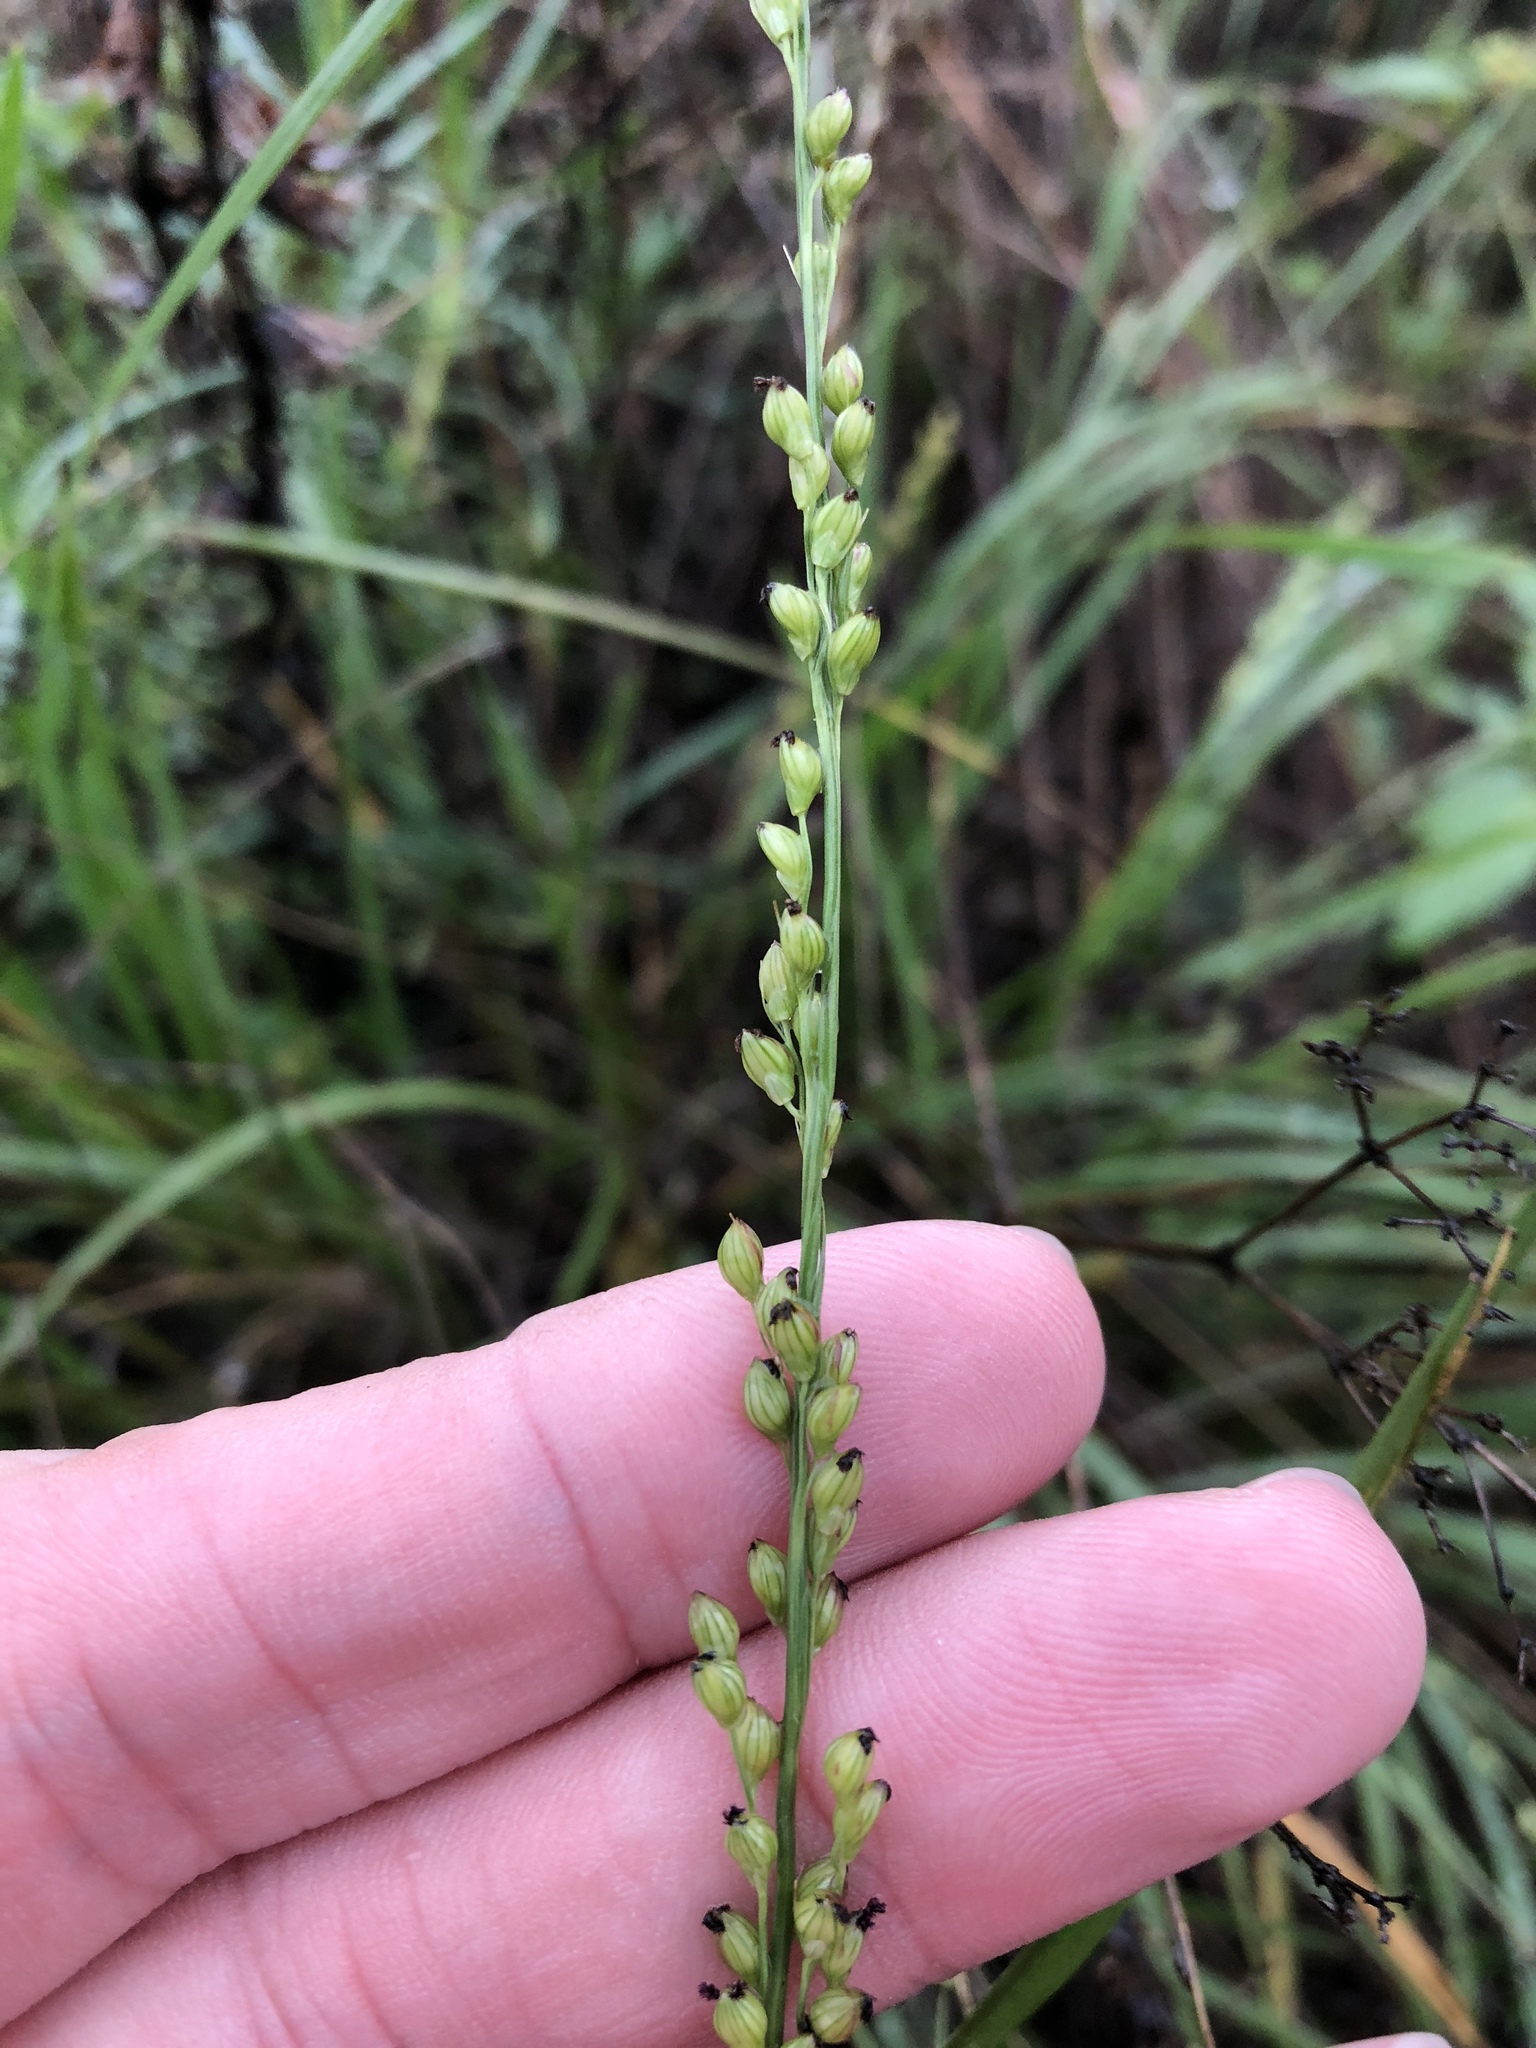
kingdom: Plantae
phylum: Tracheophyta
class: Liliopsida
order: Poales
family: Poaceae
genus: Setaria
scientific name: Setaria reverchonii
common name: Reverchon's bristle grass
